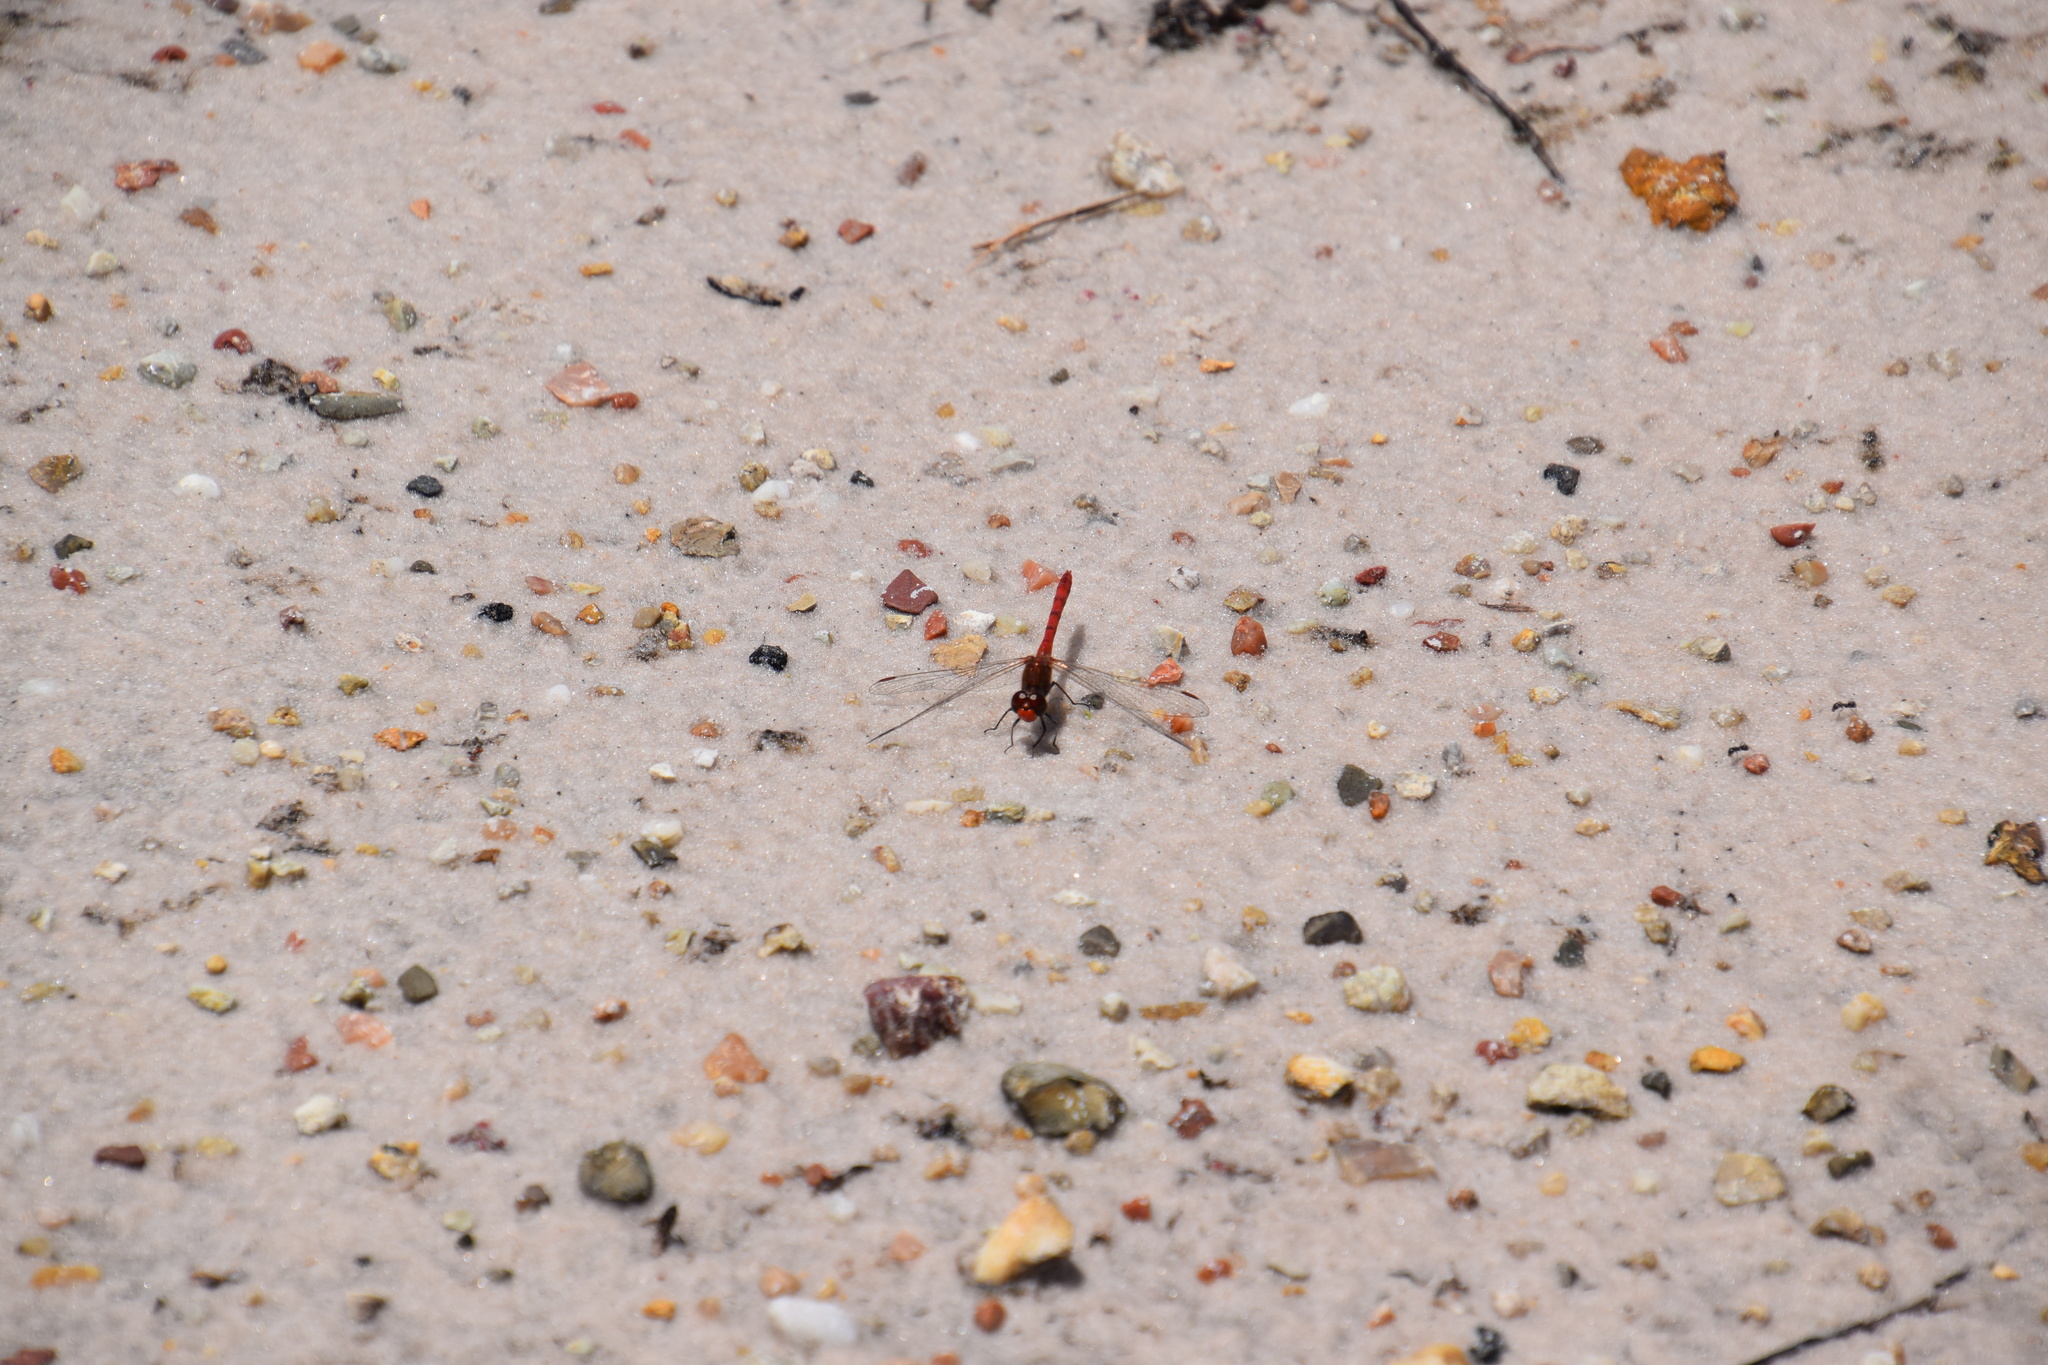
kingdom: Animalia
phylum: Arthropoda
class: Insecta
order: Odonata
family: Libellulidae
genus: Diplacodes
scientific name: Diplacodes bipunctata
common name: Red percher dragonfly
